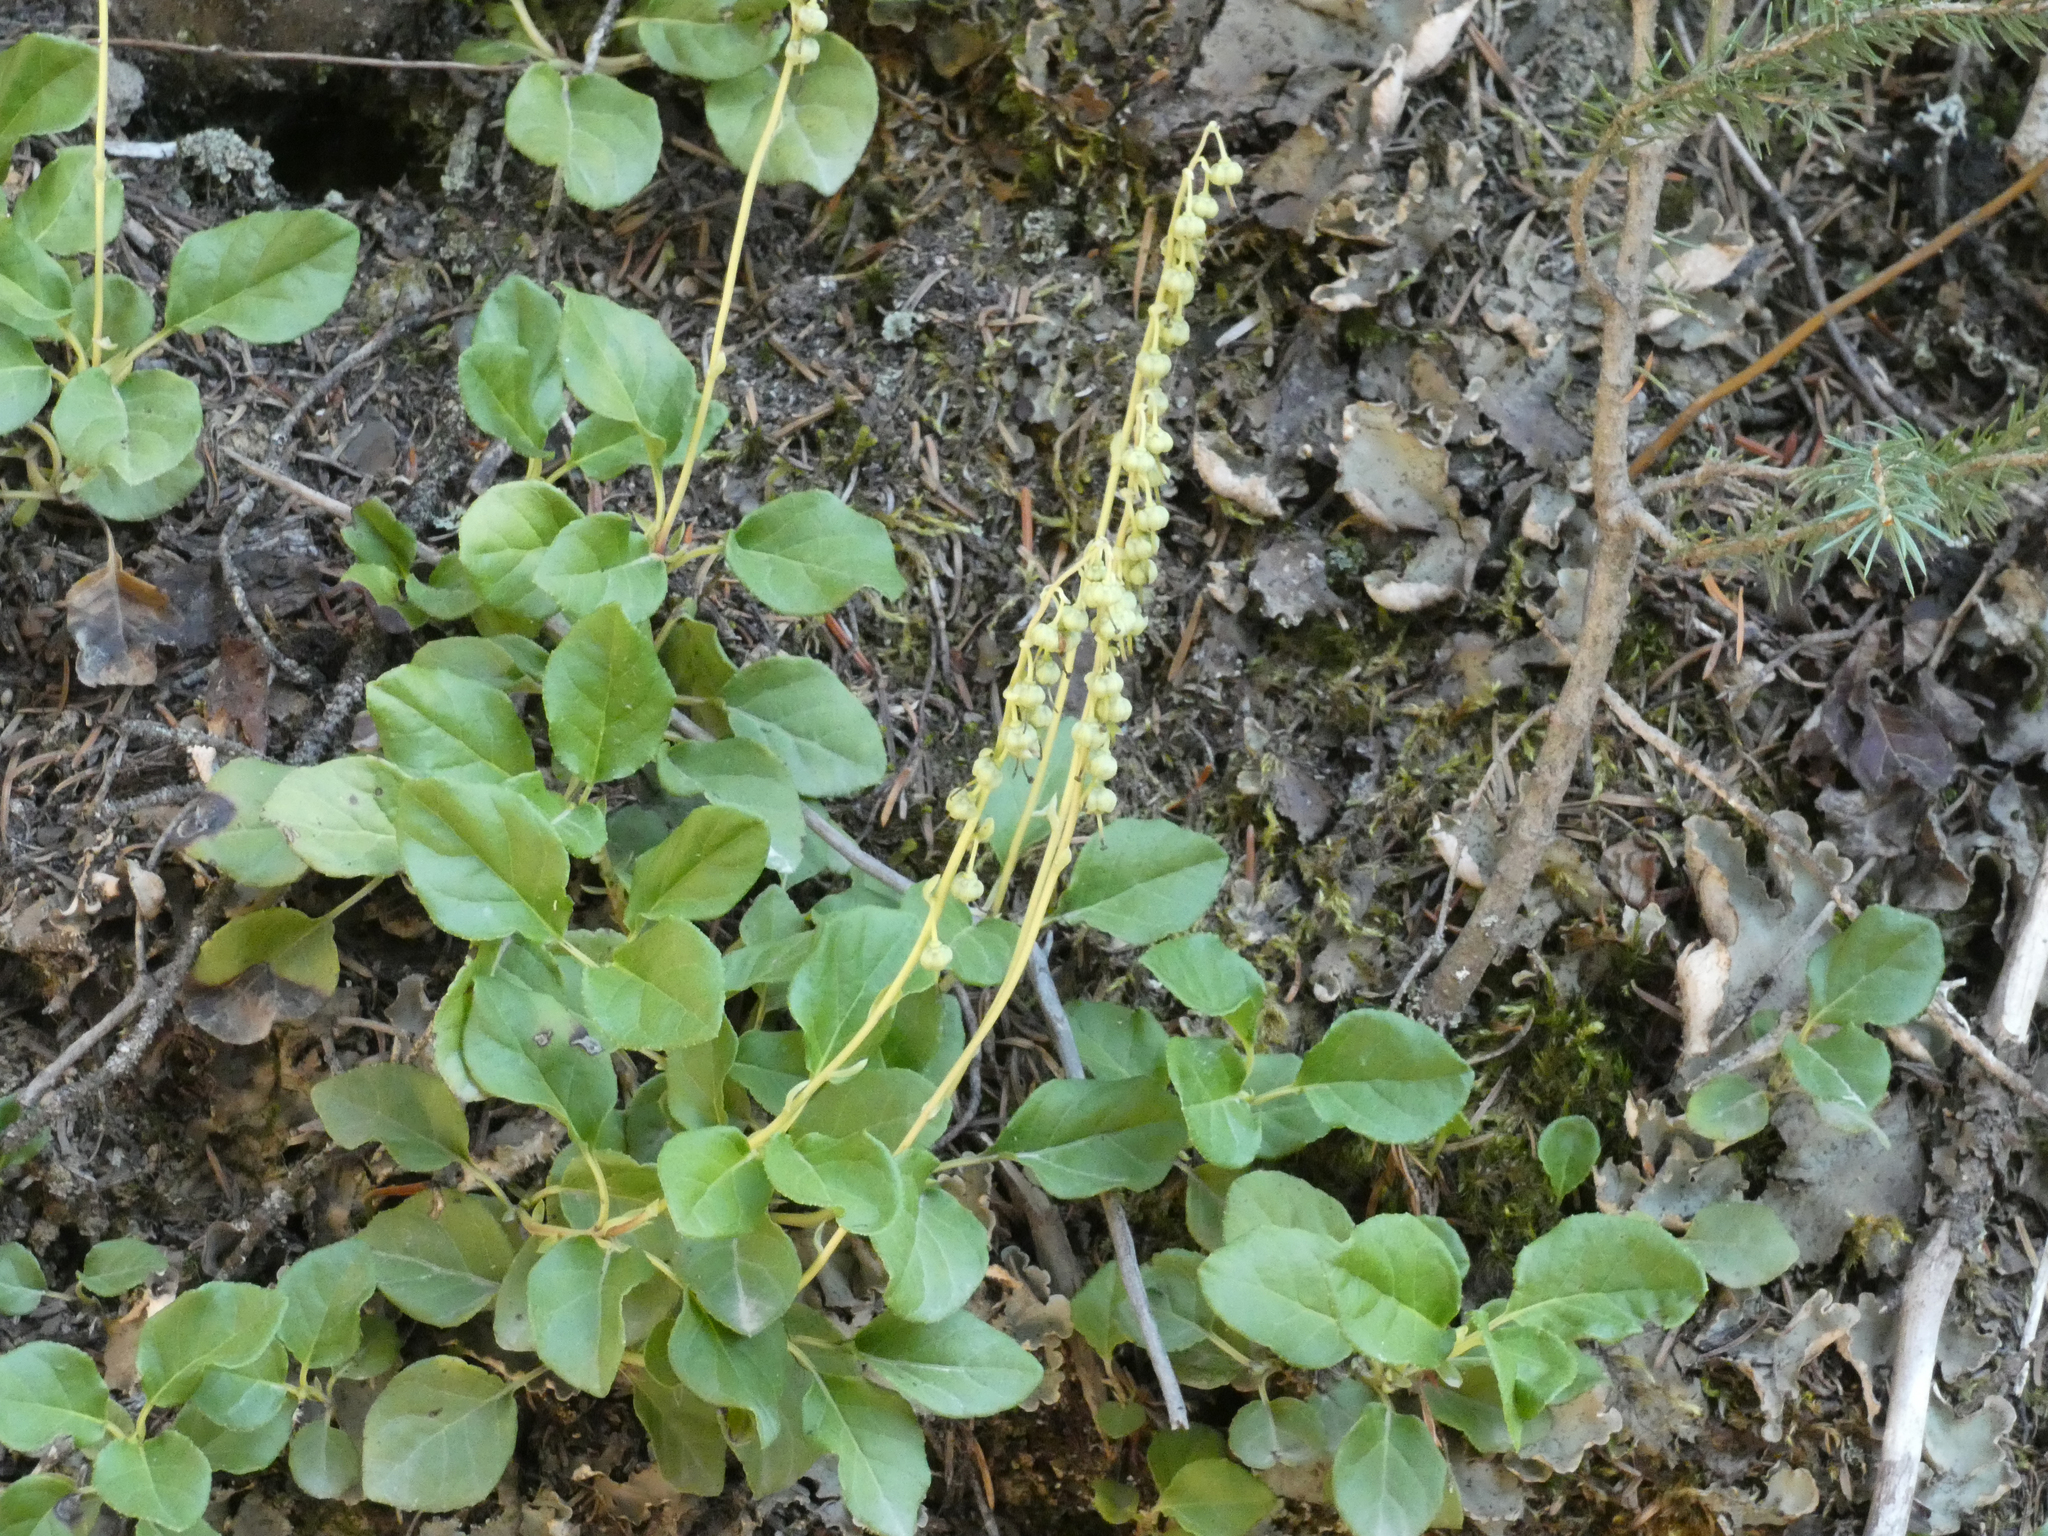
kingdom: Plantae
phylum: Tracheophyta
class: Magnoliopsida
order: Ericales
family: Ericaceae
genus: Orthilia
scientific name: Orthilia secunda
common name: One-sided orthilia
